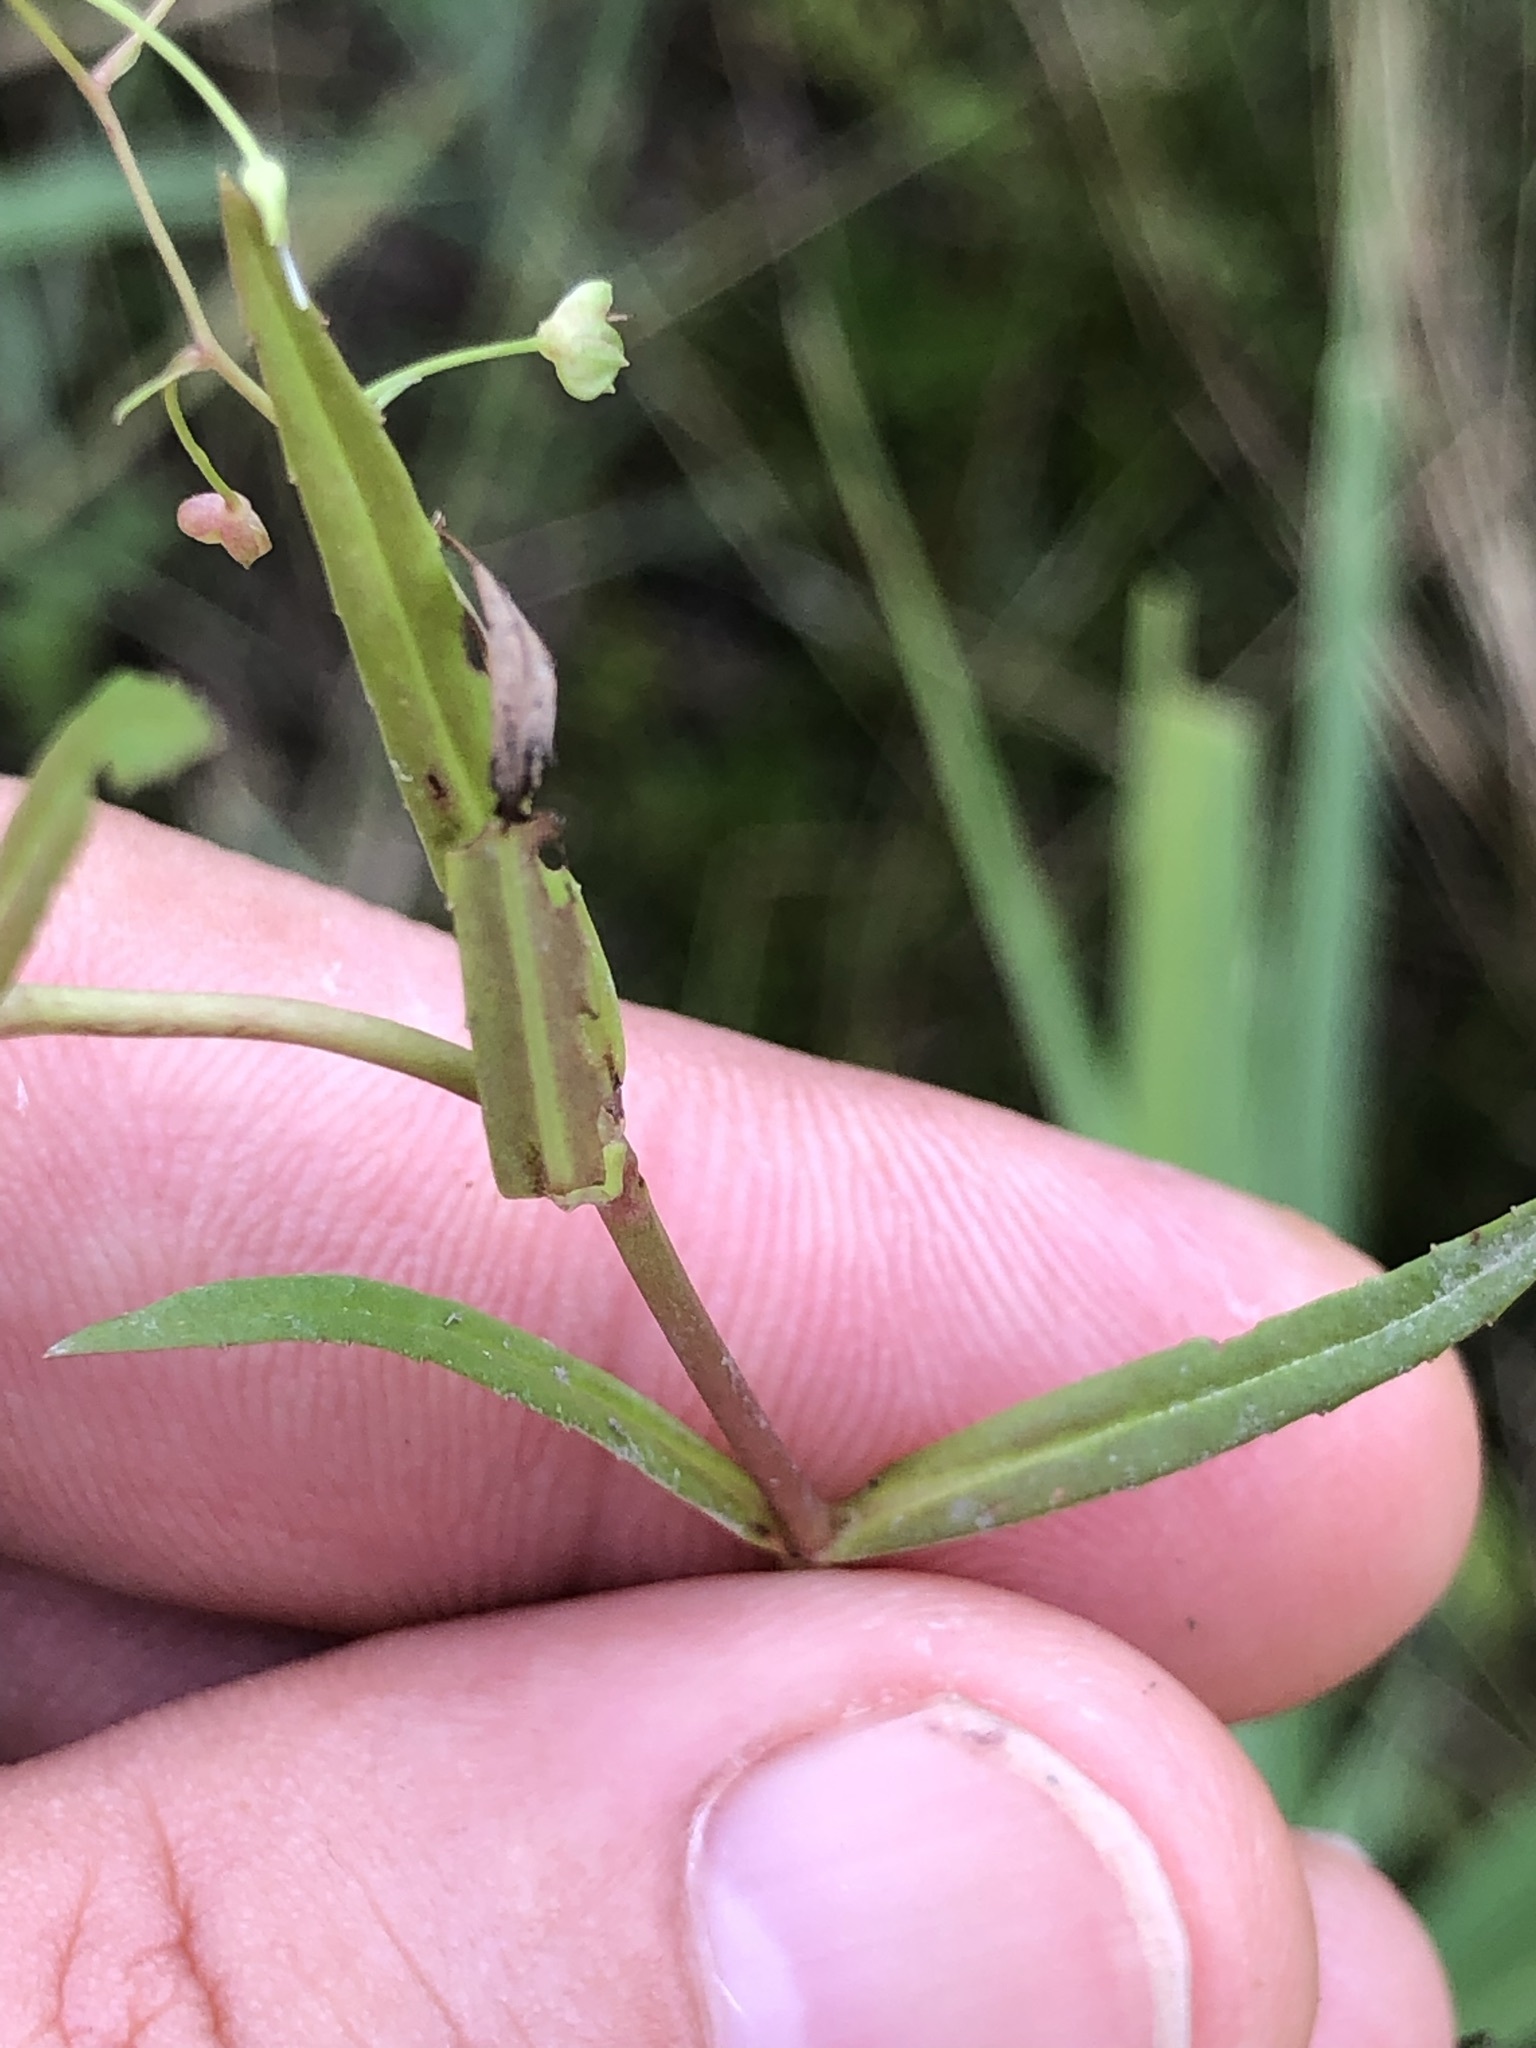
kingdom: Plantae
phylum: Tracheophyta
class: Magnoliopsida
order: Lamiales
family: Plantaginaceae
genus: Veronica
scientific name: Veronica scutellata
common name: Marsh speedwell
